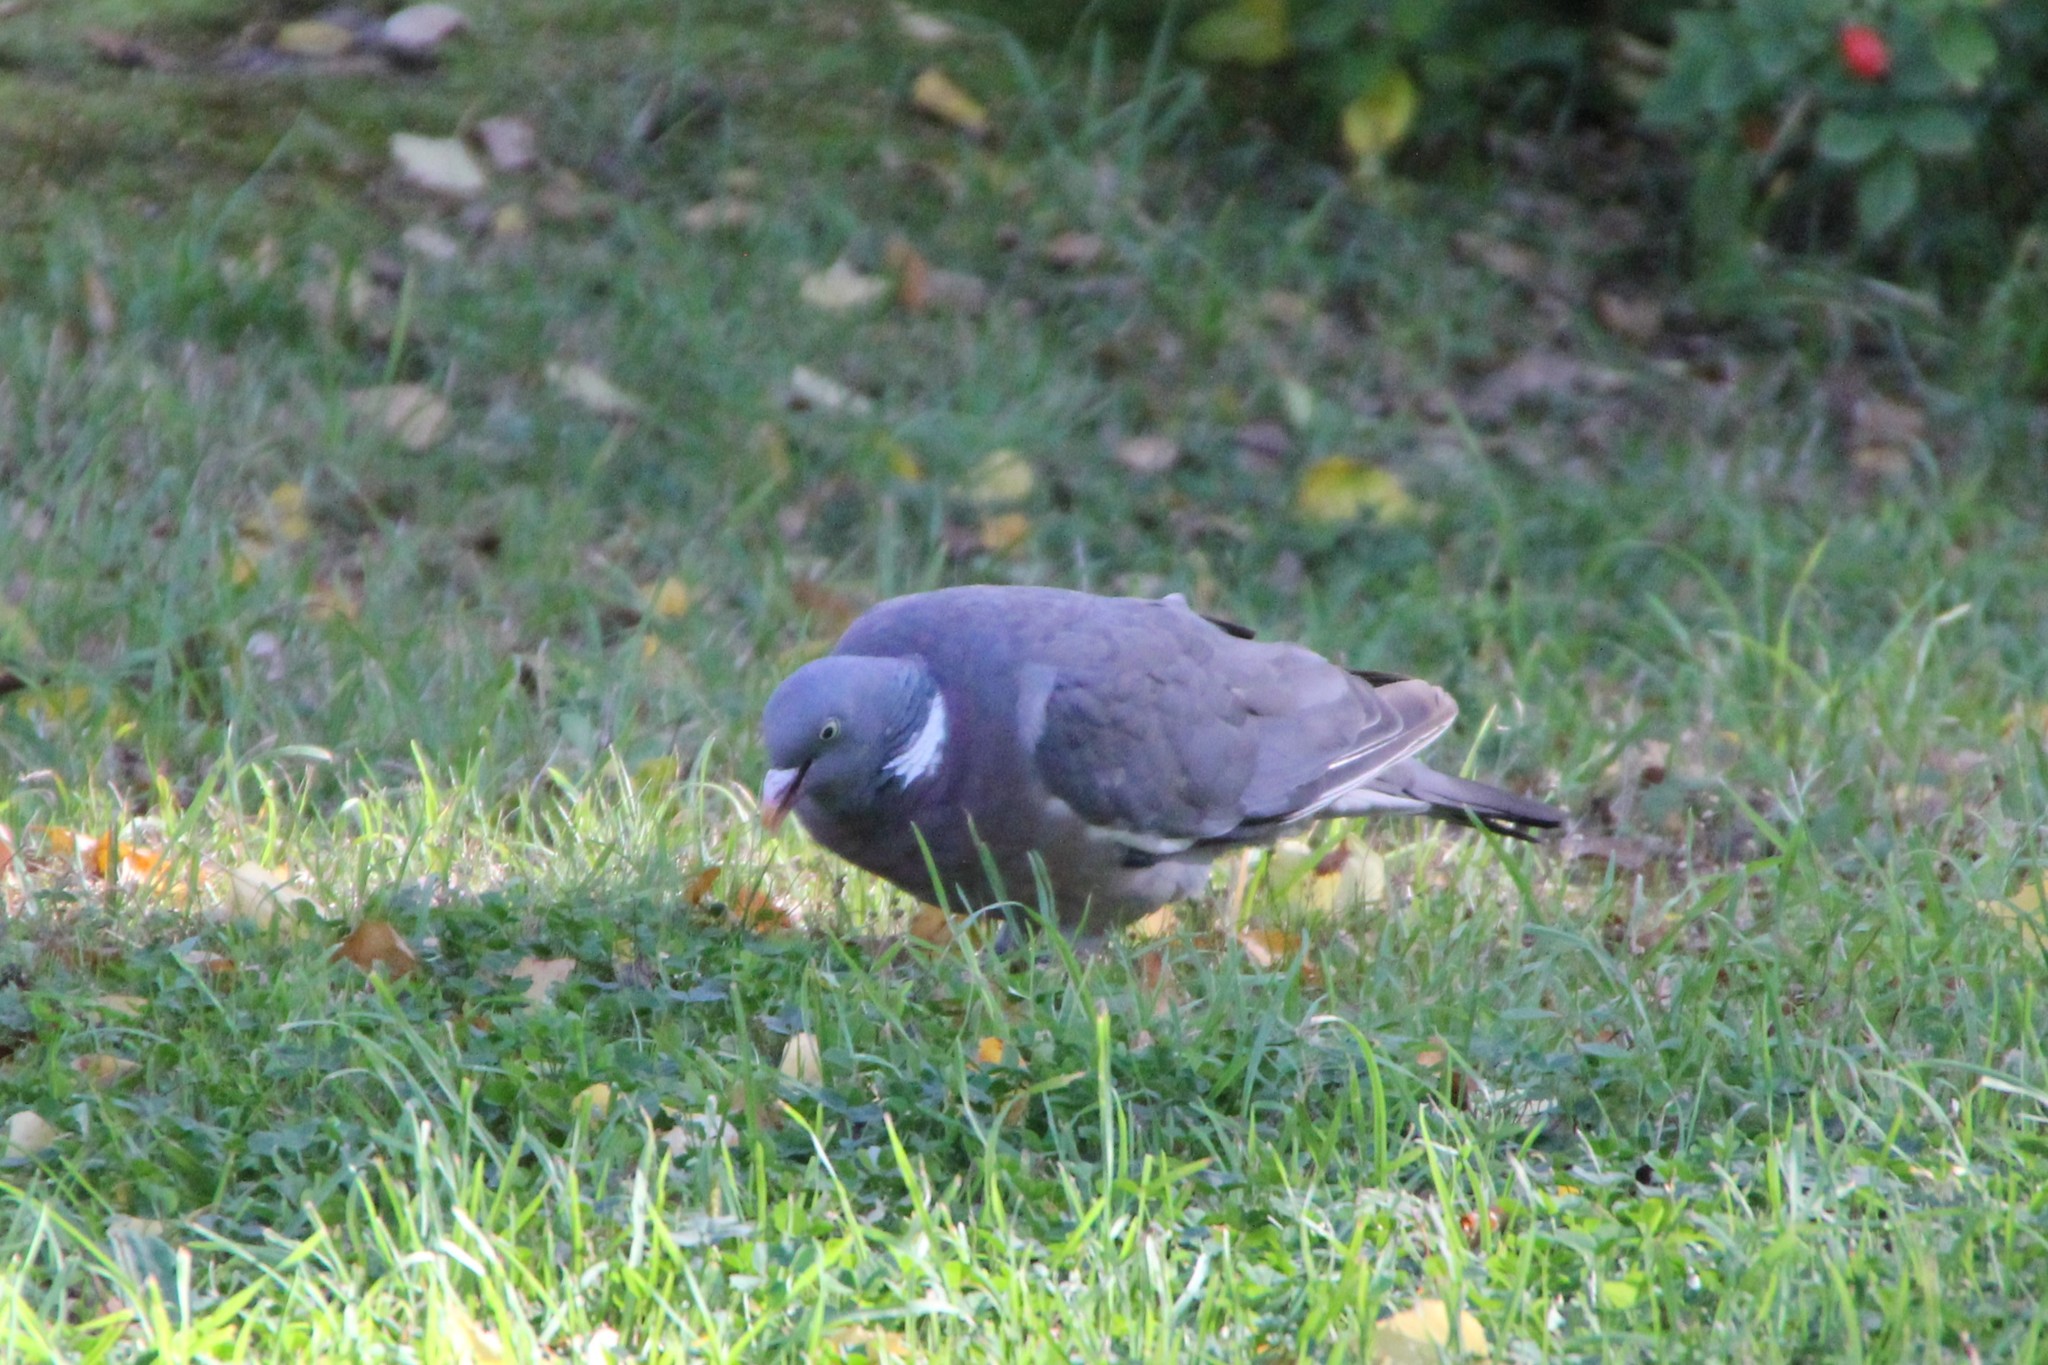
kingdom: Animalia
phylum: Chordata
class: Aves
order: Columbiformes
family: Columbidae
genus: Columba
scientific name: Columba palumbus
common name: Common wood pigeon
